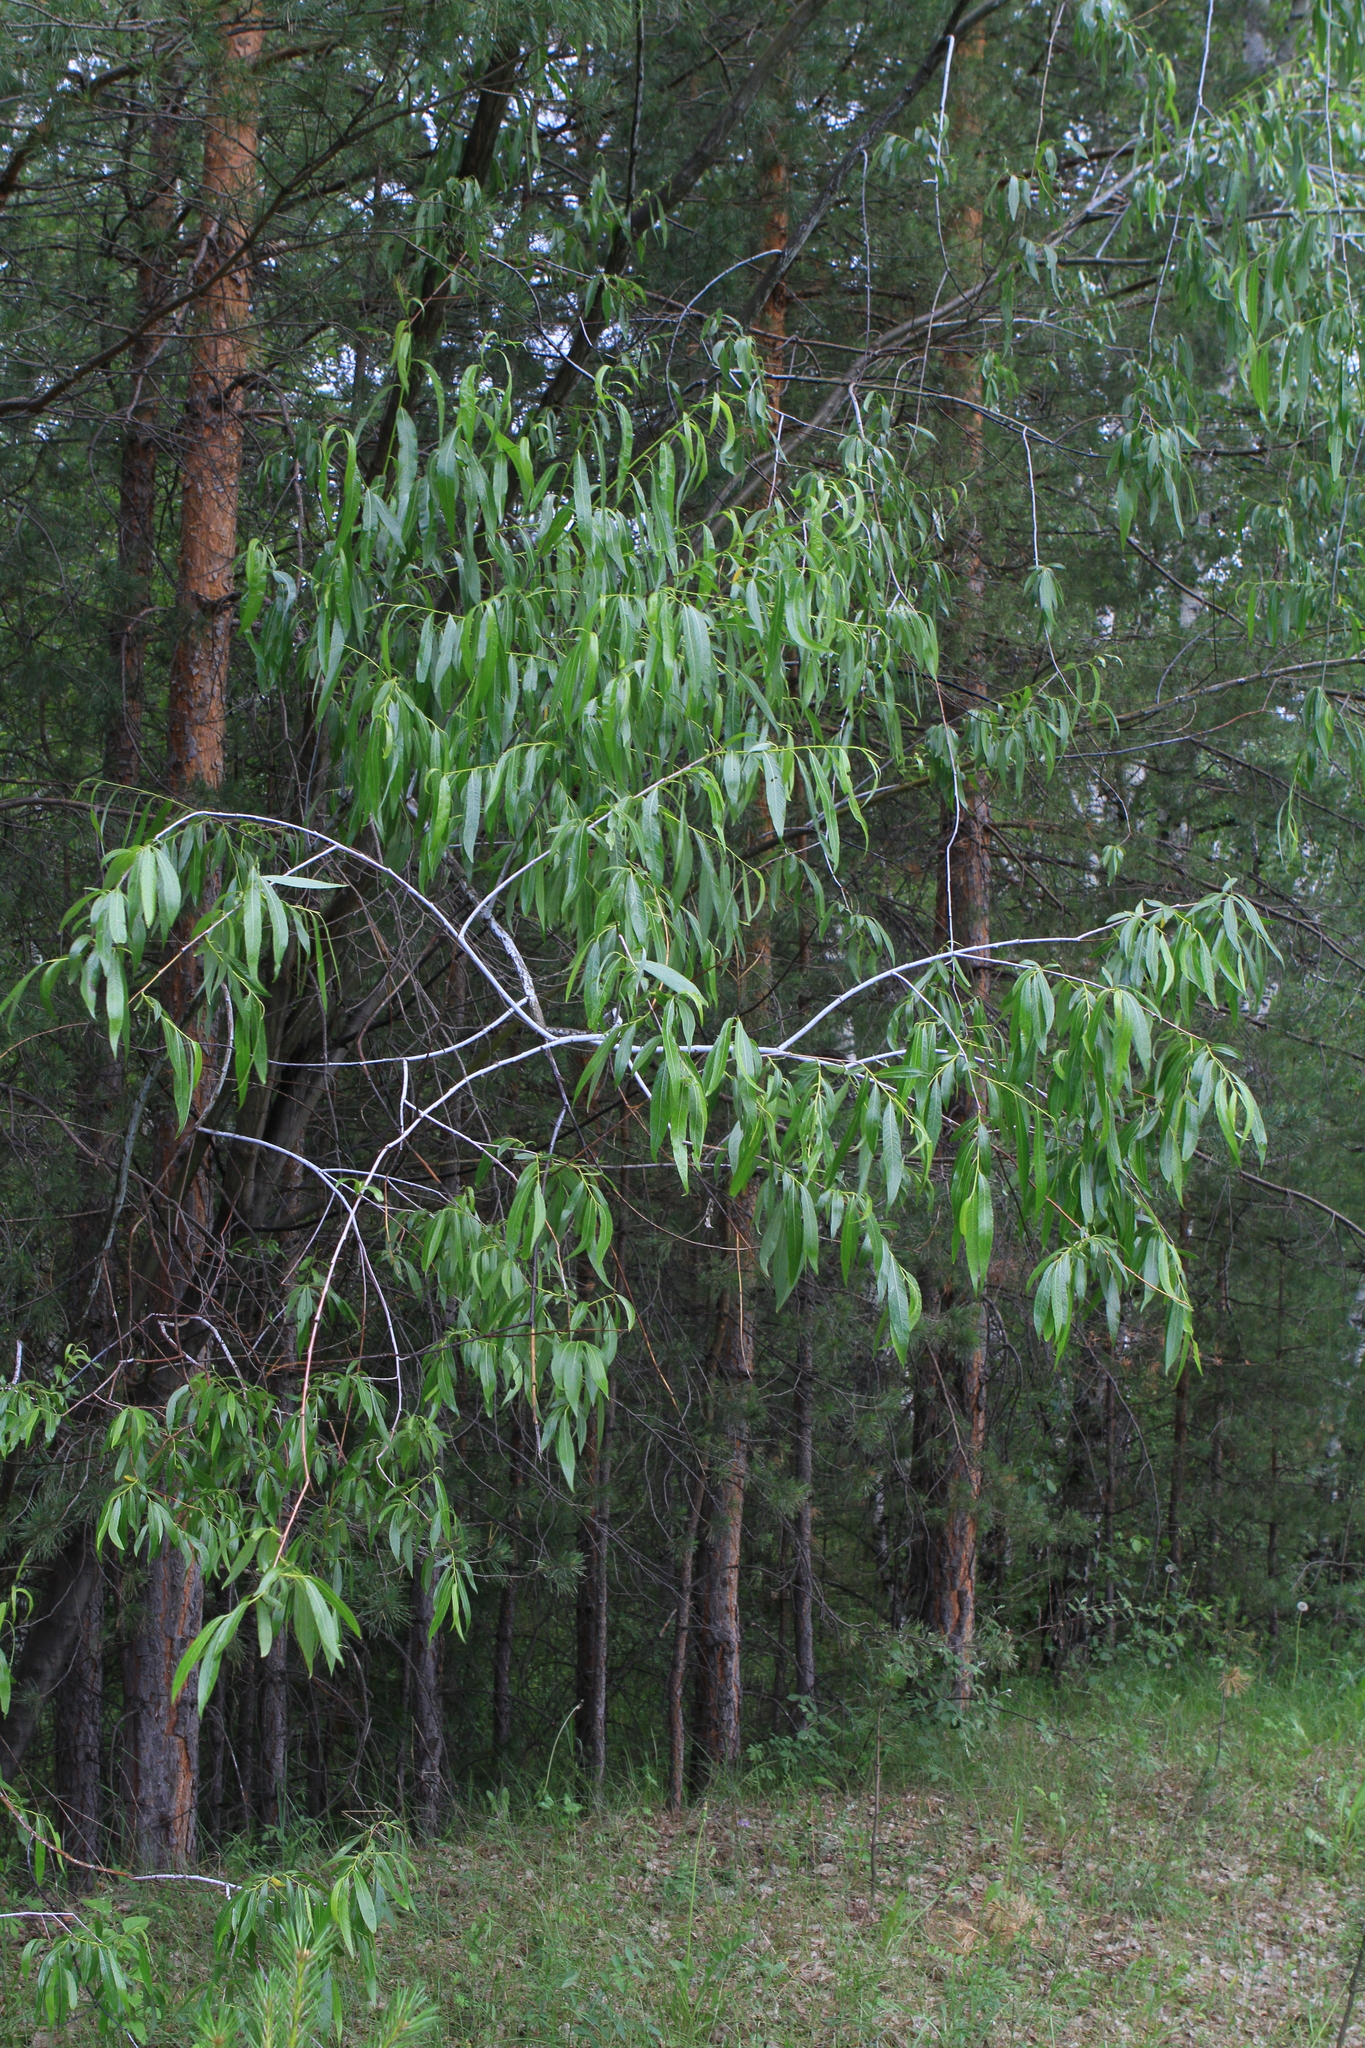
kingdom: Plantae
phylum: Tracheophyta
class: Magnoliopsida
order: Malpighiales
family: Salicaceae
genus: Salix
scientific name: Salix rorida
